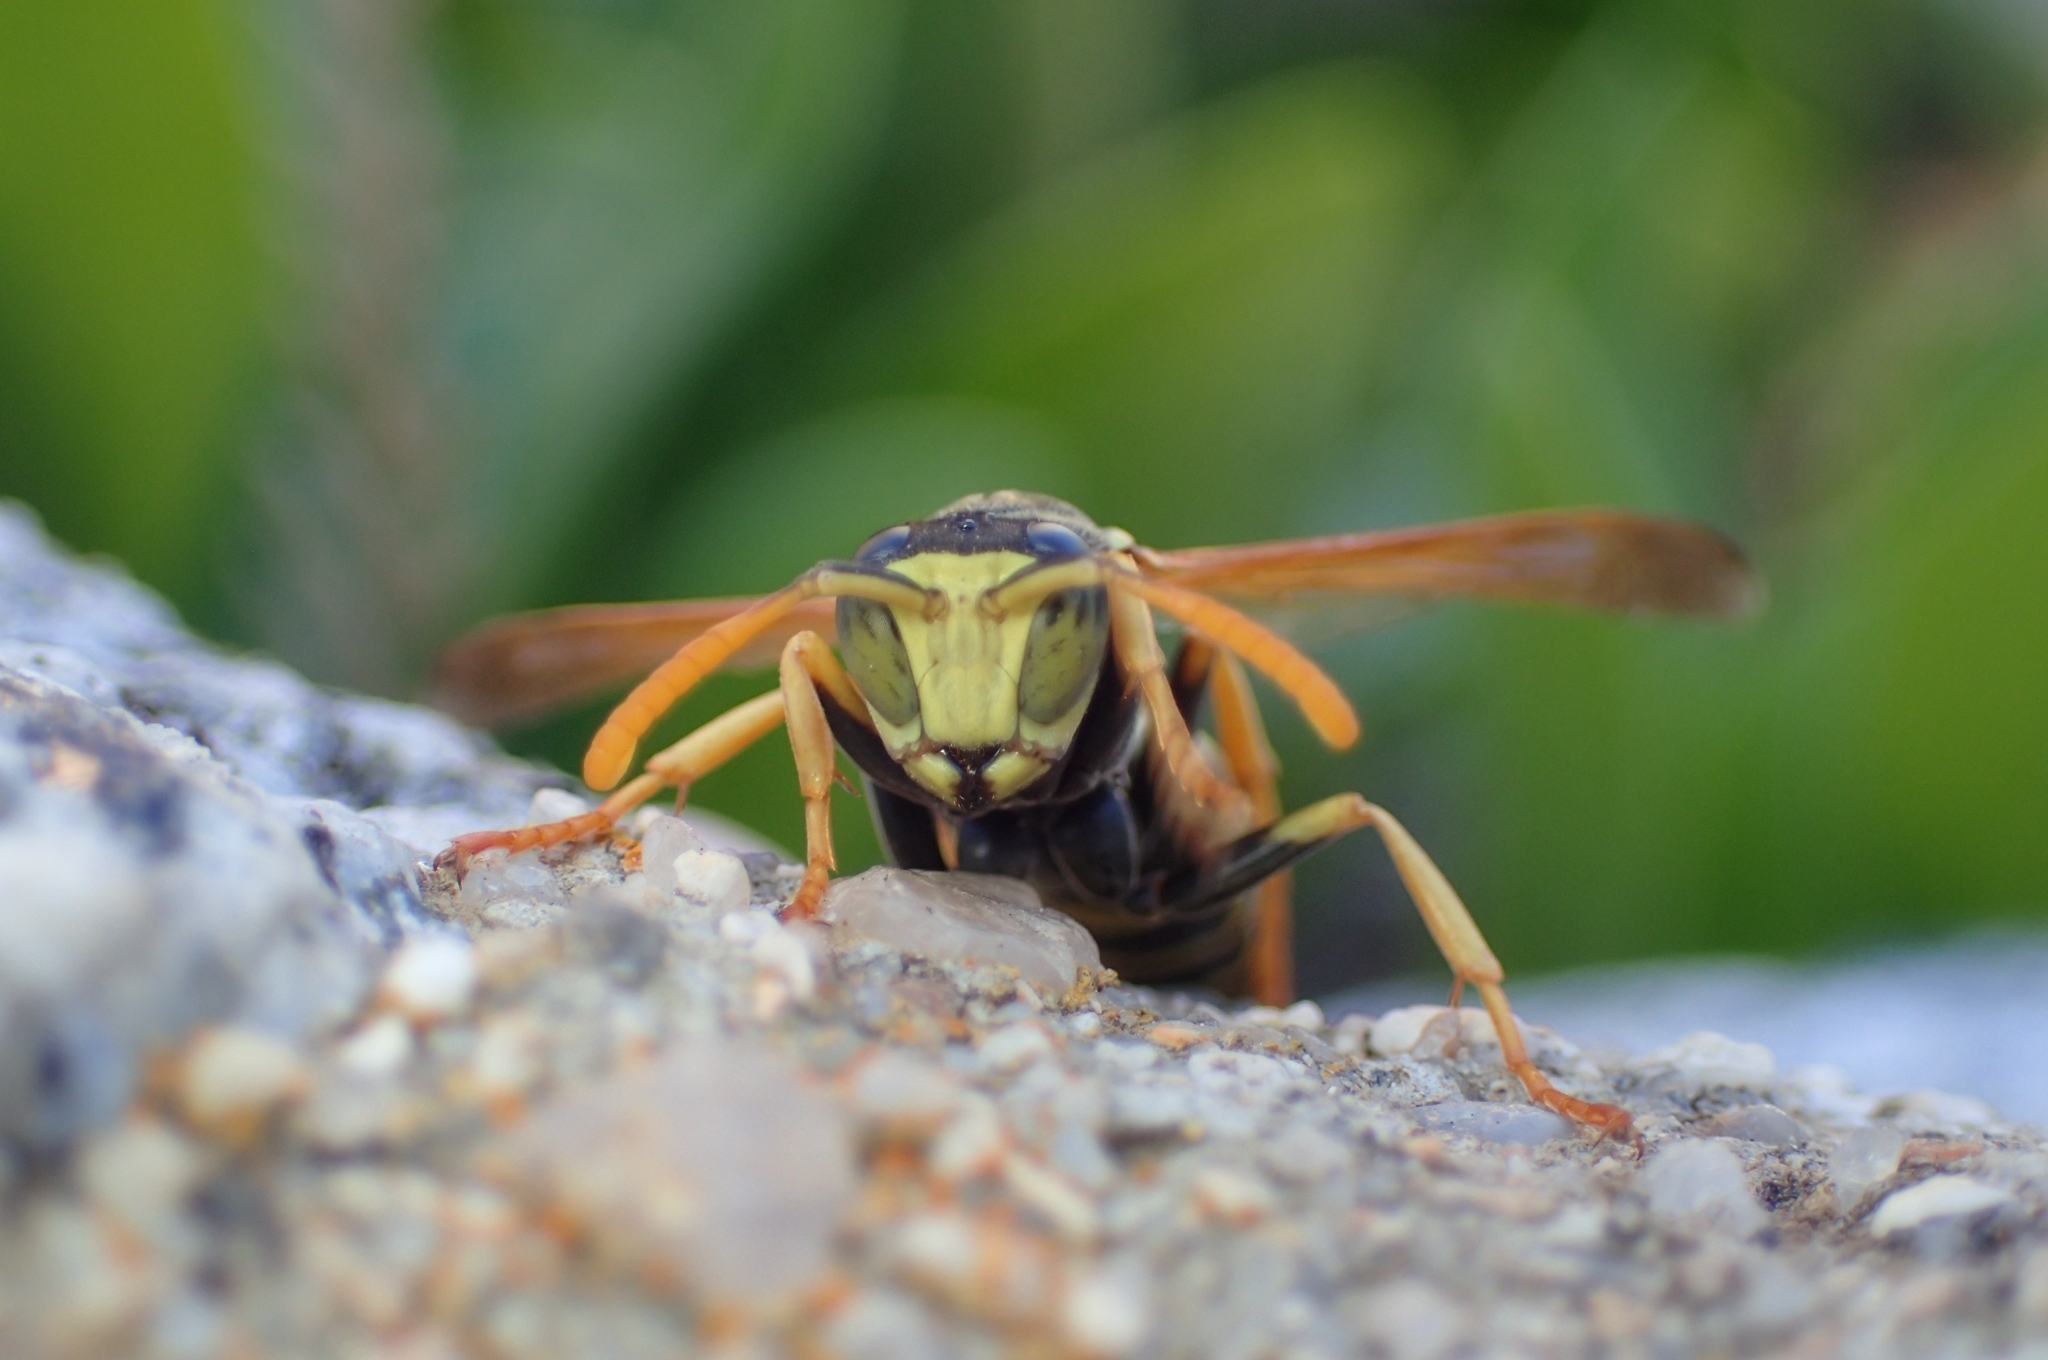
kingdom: Animalia
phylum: Arthropoda
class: Insecta
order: Hymenoptera
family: Eumenidae
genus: Polistes
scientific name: Polistes dominula
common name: Paper wasp
